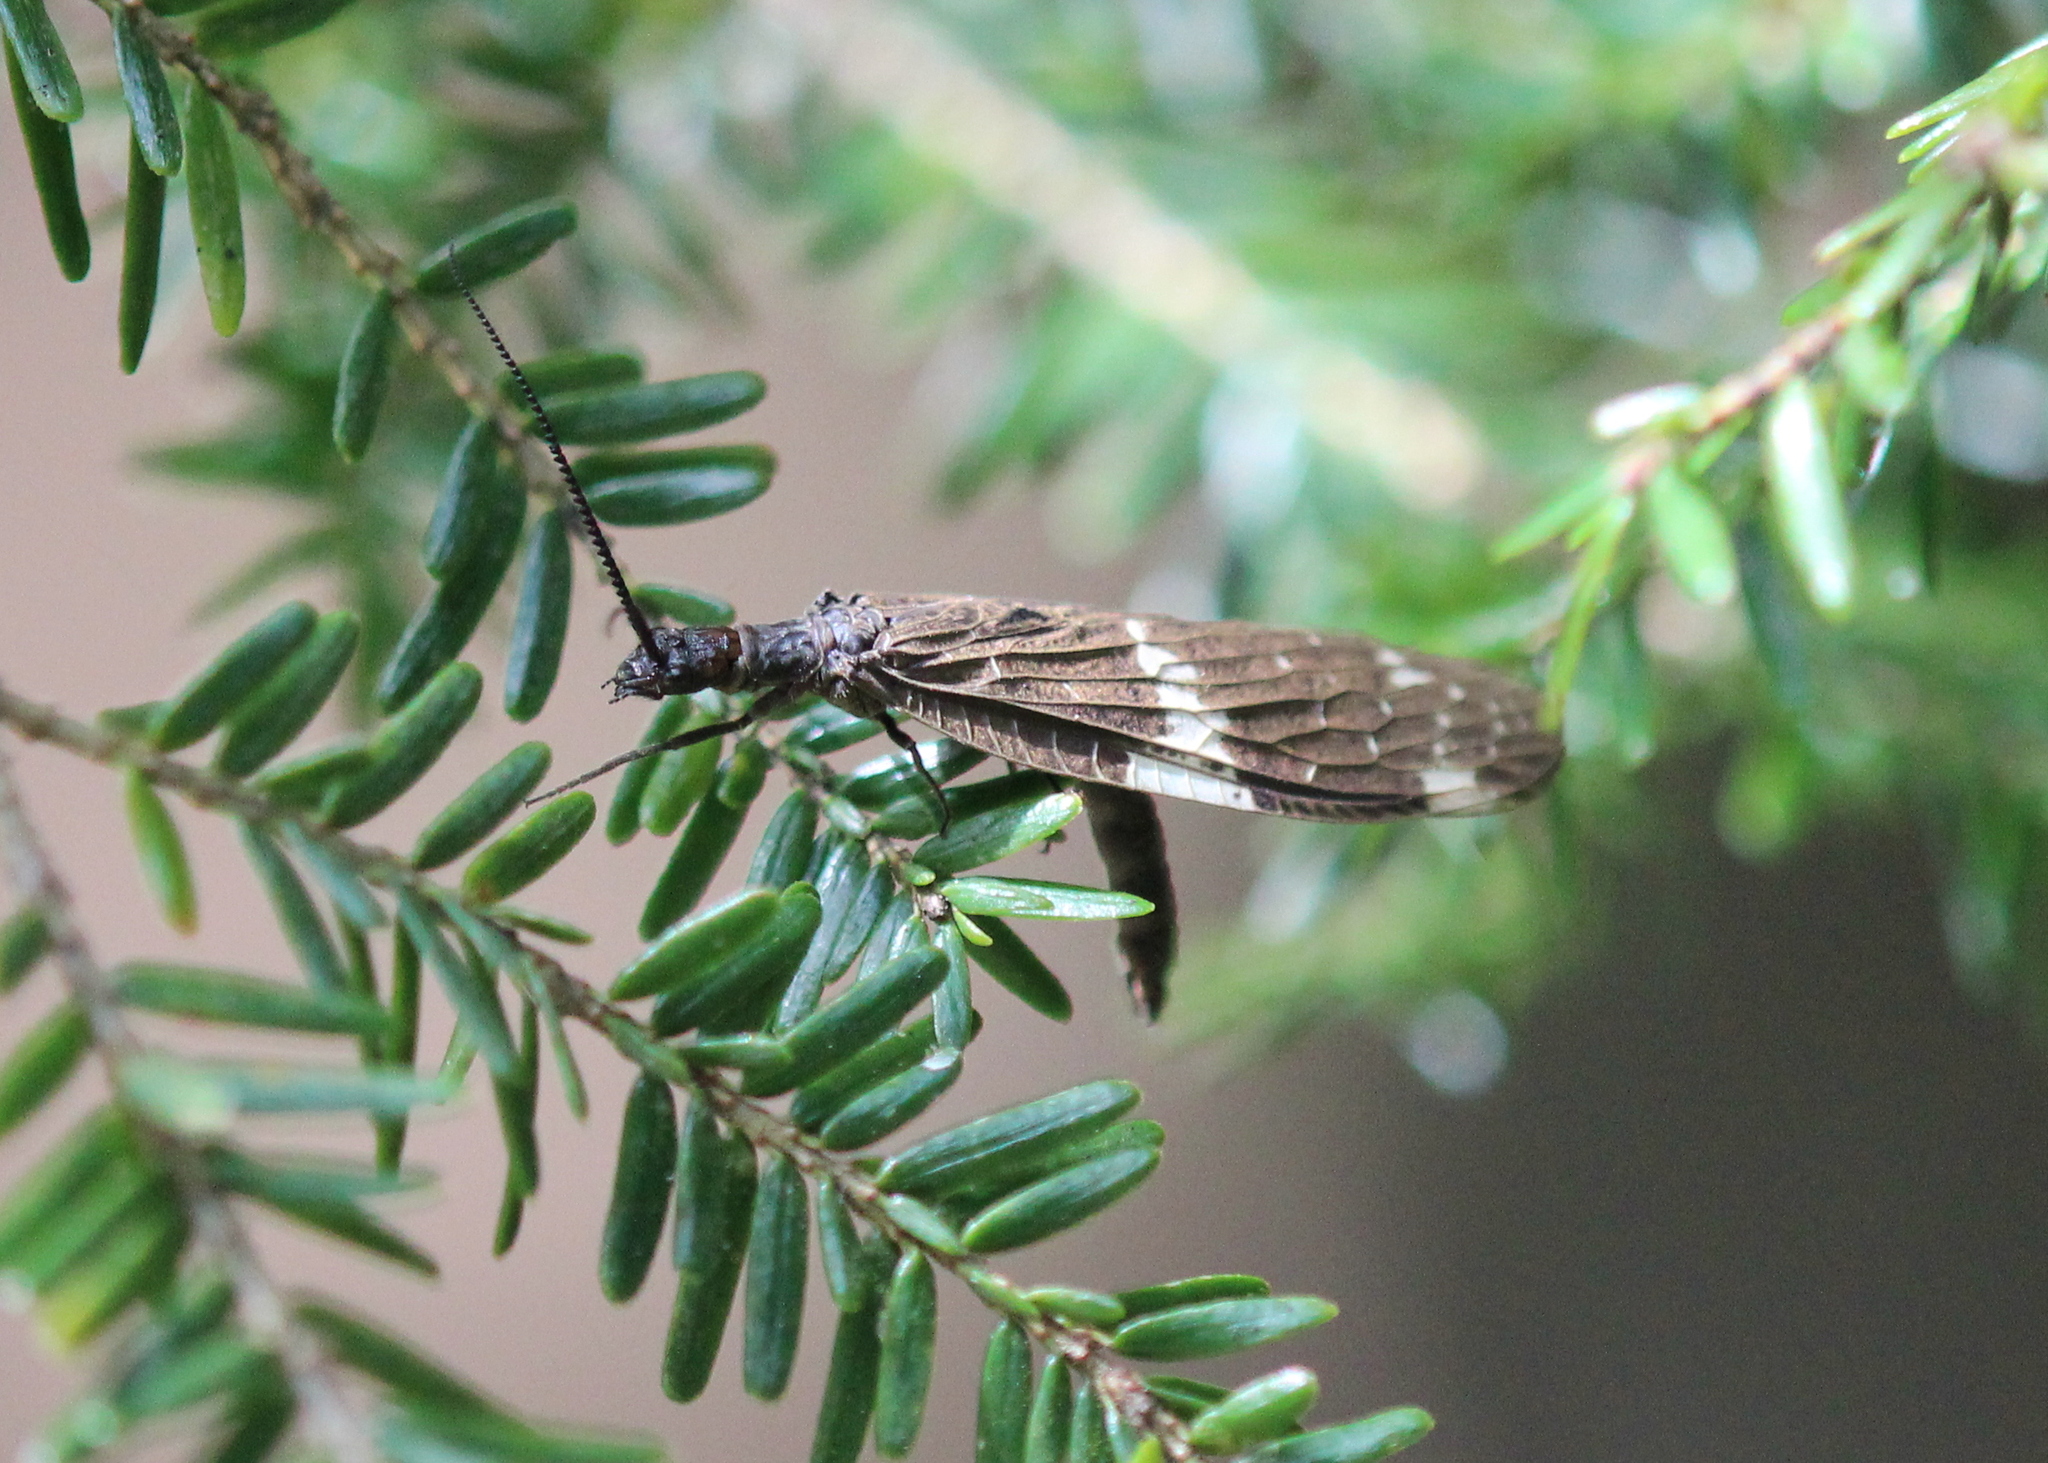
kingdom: Animalia
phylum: Arthropoda
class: Insecta
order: Megaloptera
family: Corydalidae
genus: Nigronia
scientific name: Nigronia serricornis
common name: Serrate dark fishfly
